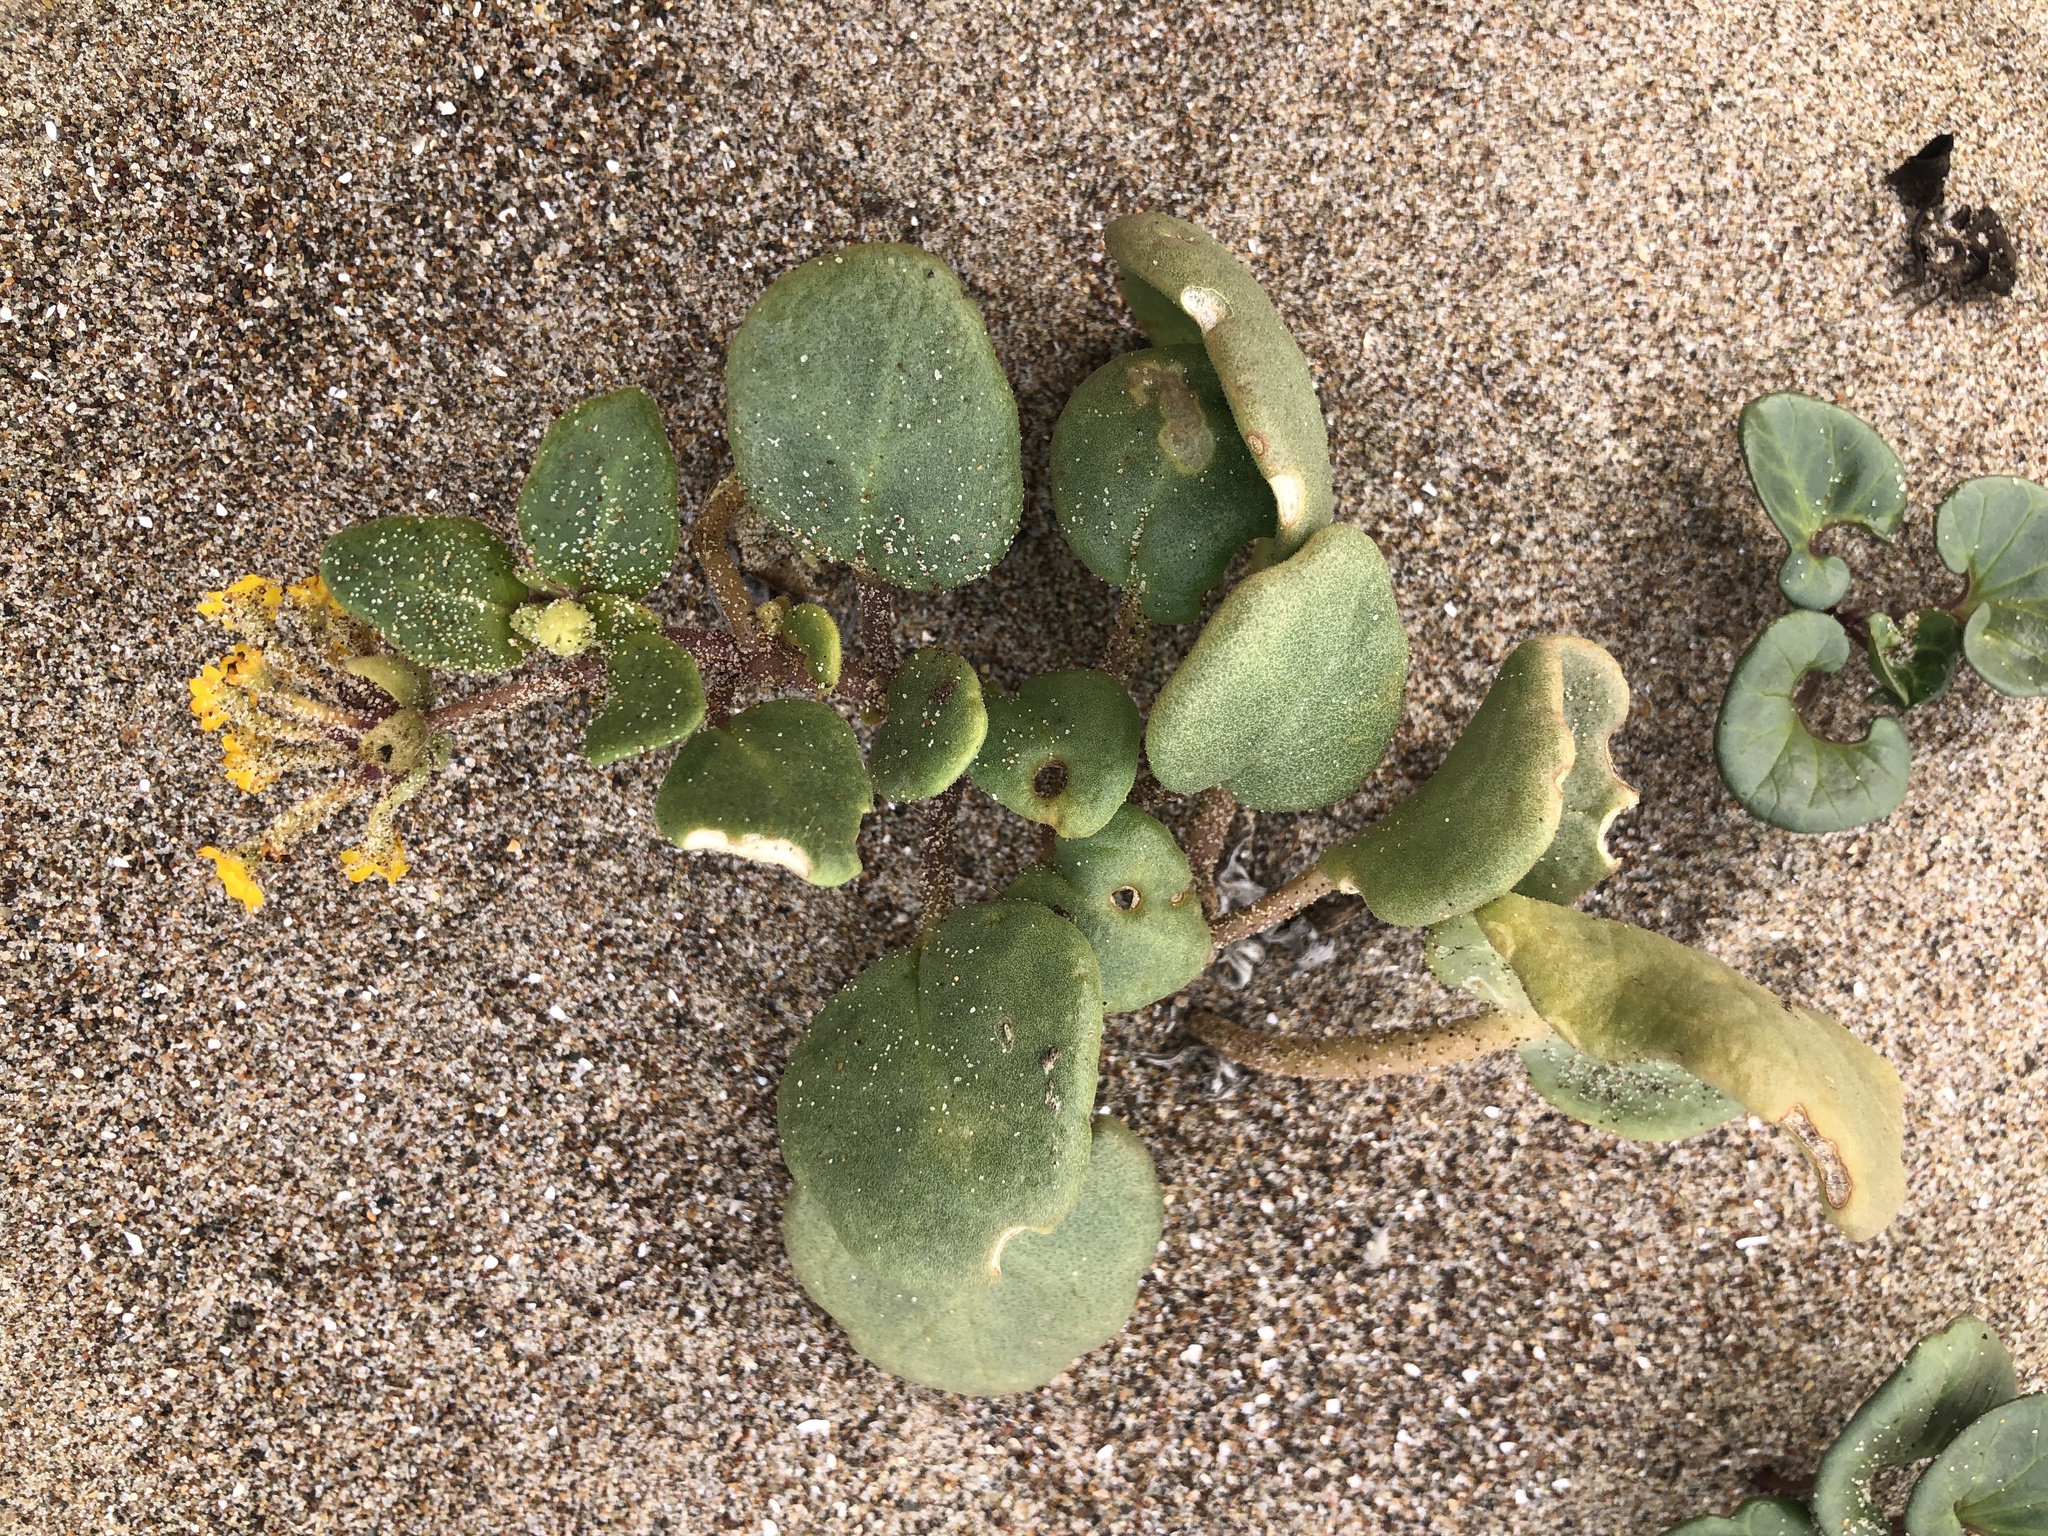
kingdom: Plantae
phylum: Tracheophyta
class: Magnoliopsida
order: Caryophyllales
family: Nyctaginaceae
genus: Abronia
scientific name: Abronia latifolia
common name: Yellow sand-verbena
